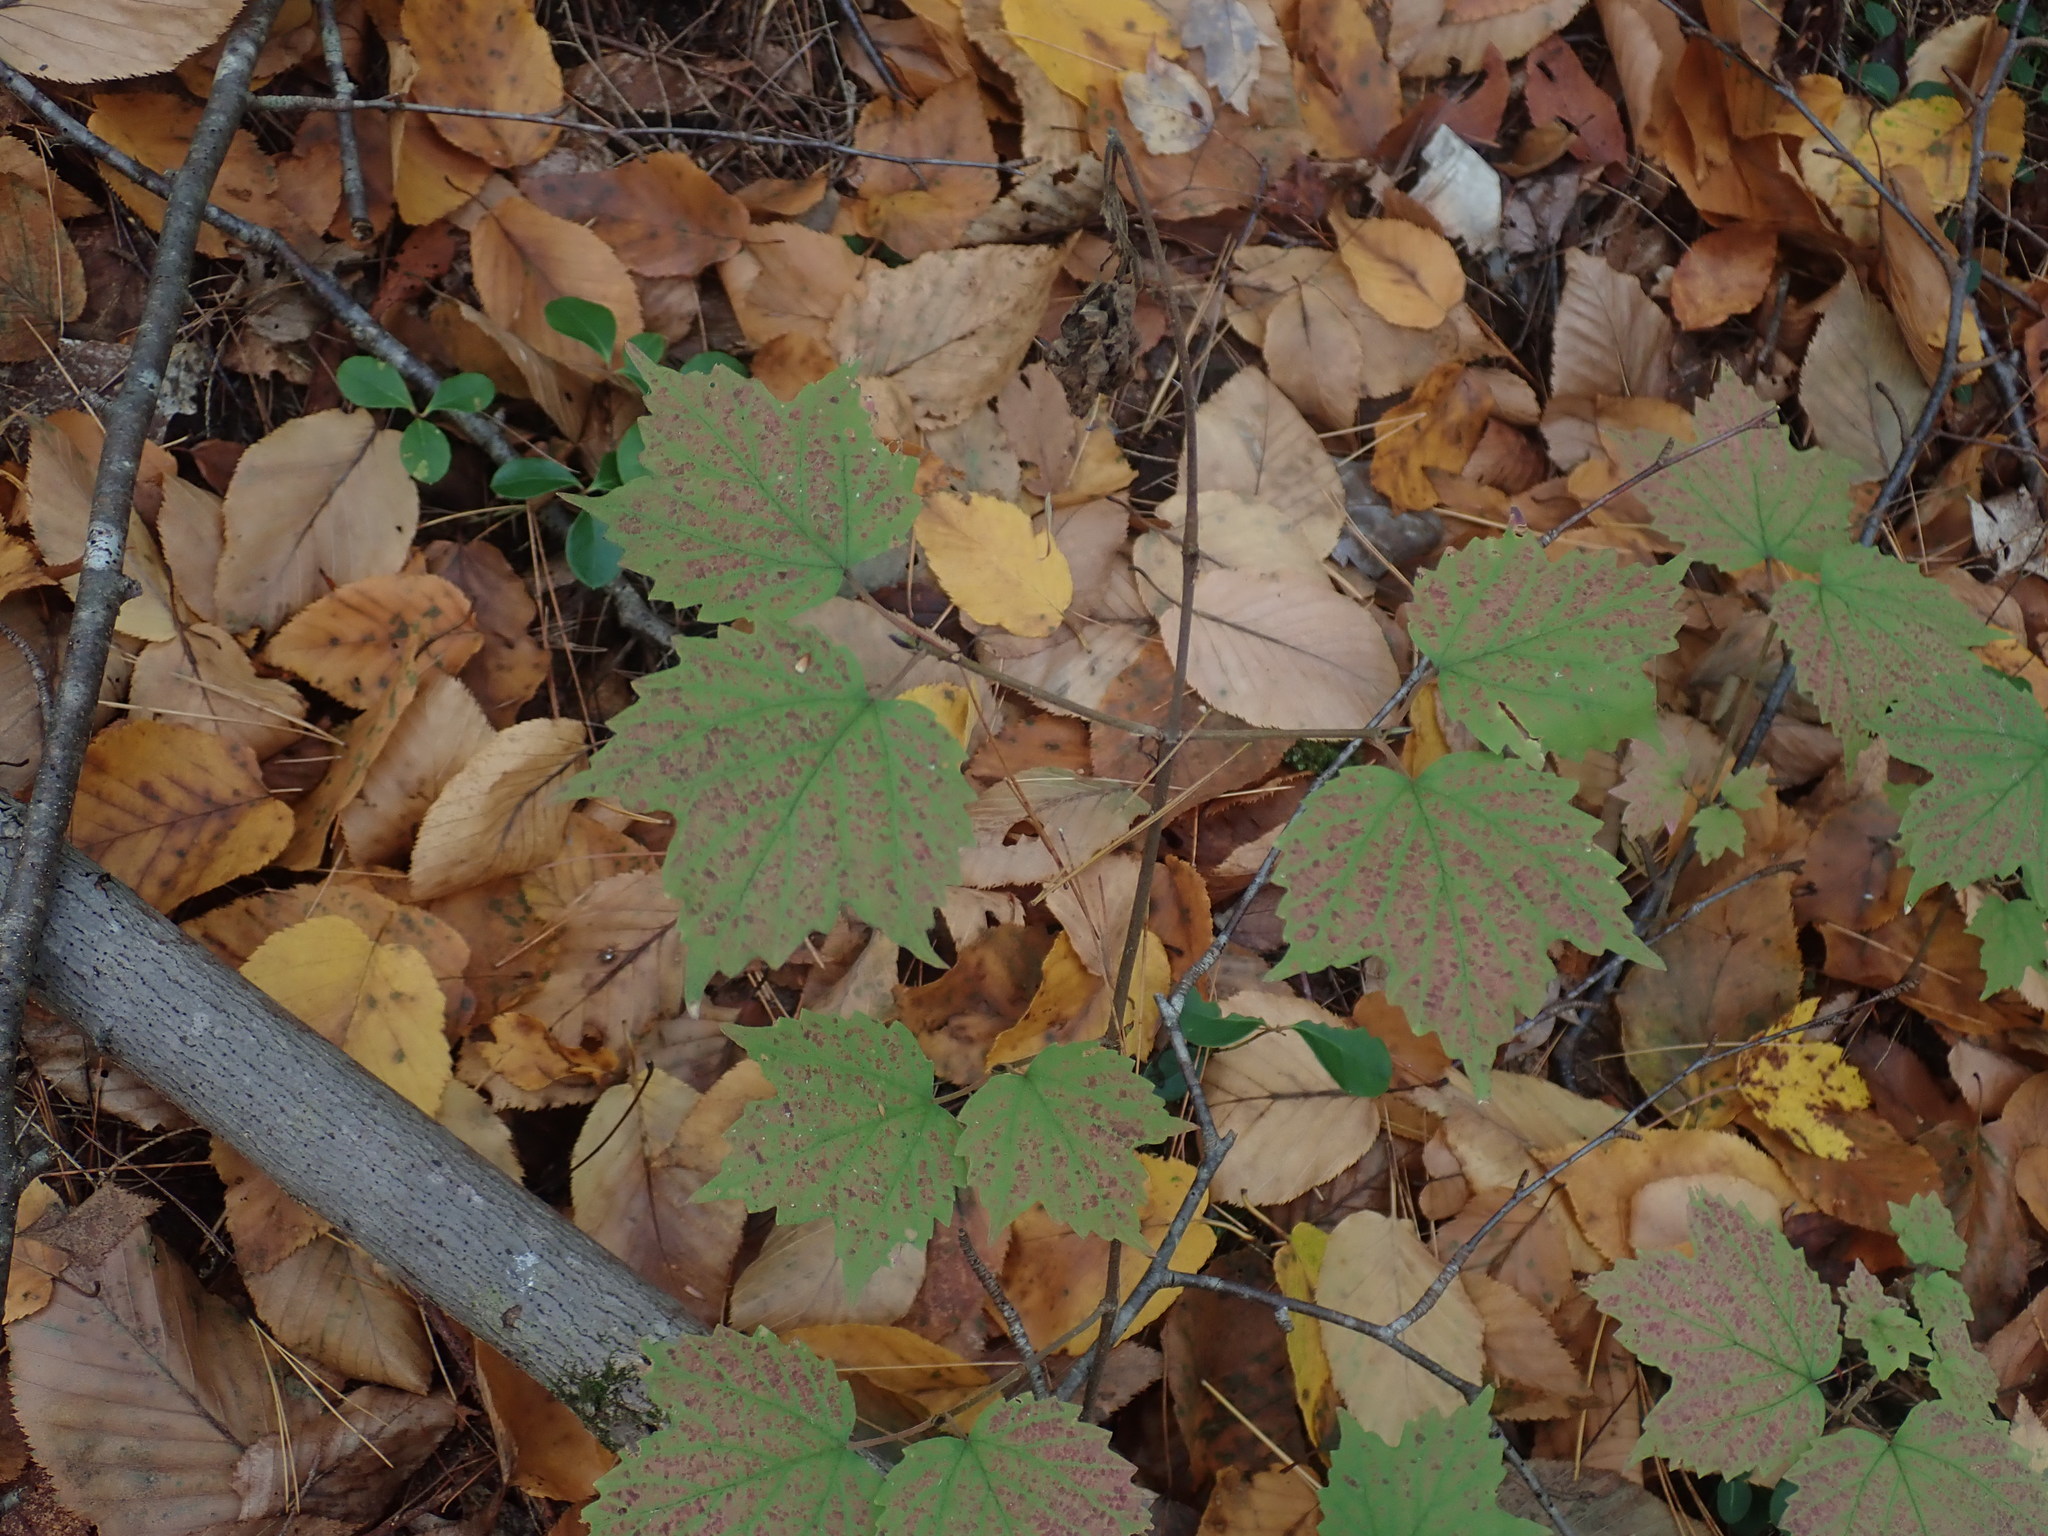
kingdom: Plantae
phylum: Tracheophyta
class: Magnoliopsida
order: Dipsacales
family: Viburnaceae
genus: Viburnum
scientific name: Viburnum acerifolium
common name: Dockmackie
